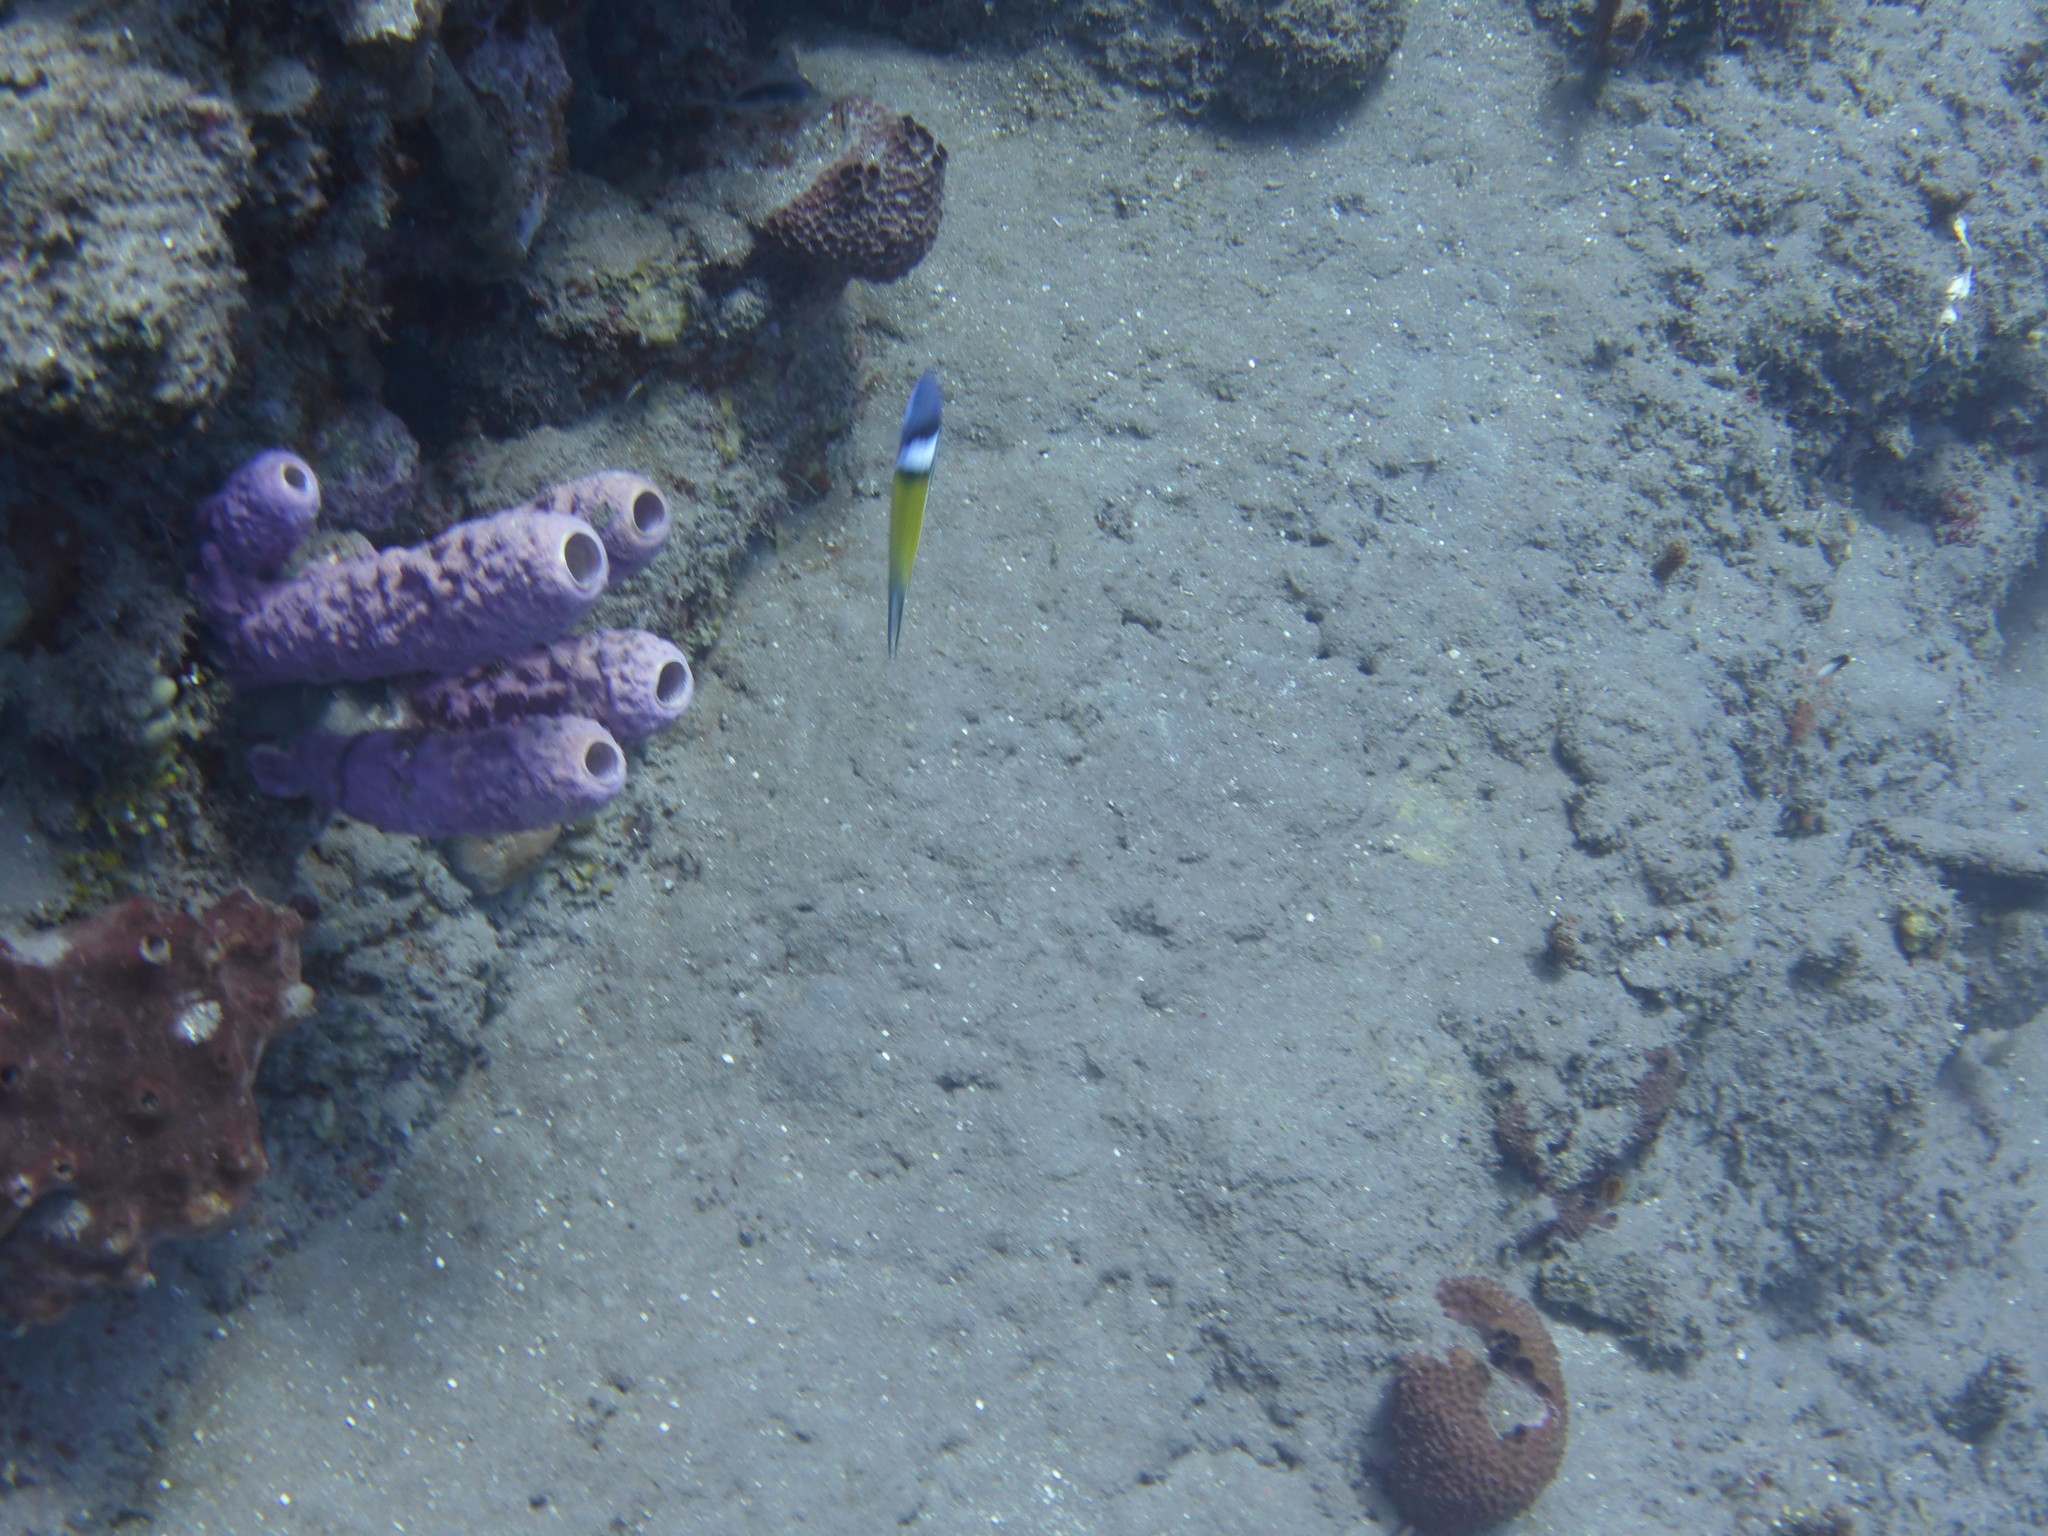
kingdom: Animalia
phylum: Chordata
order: Perciformes
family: Labridae
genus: Thalassoma
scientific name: Thalassoma bifasciatum
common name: Bluehead wrasse
